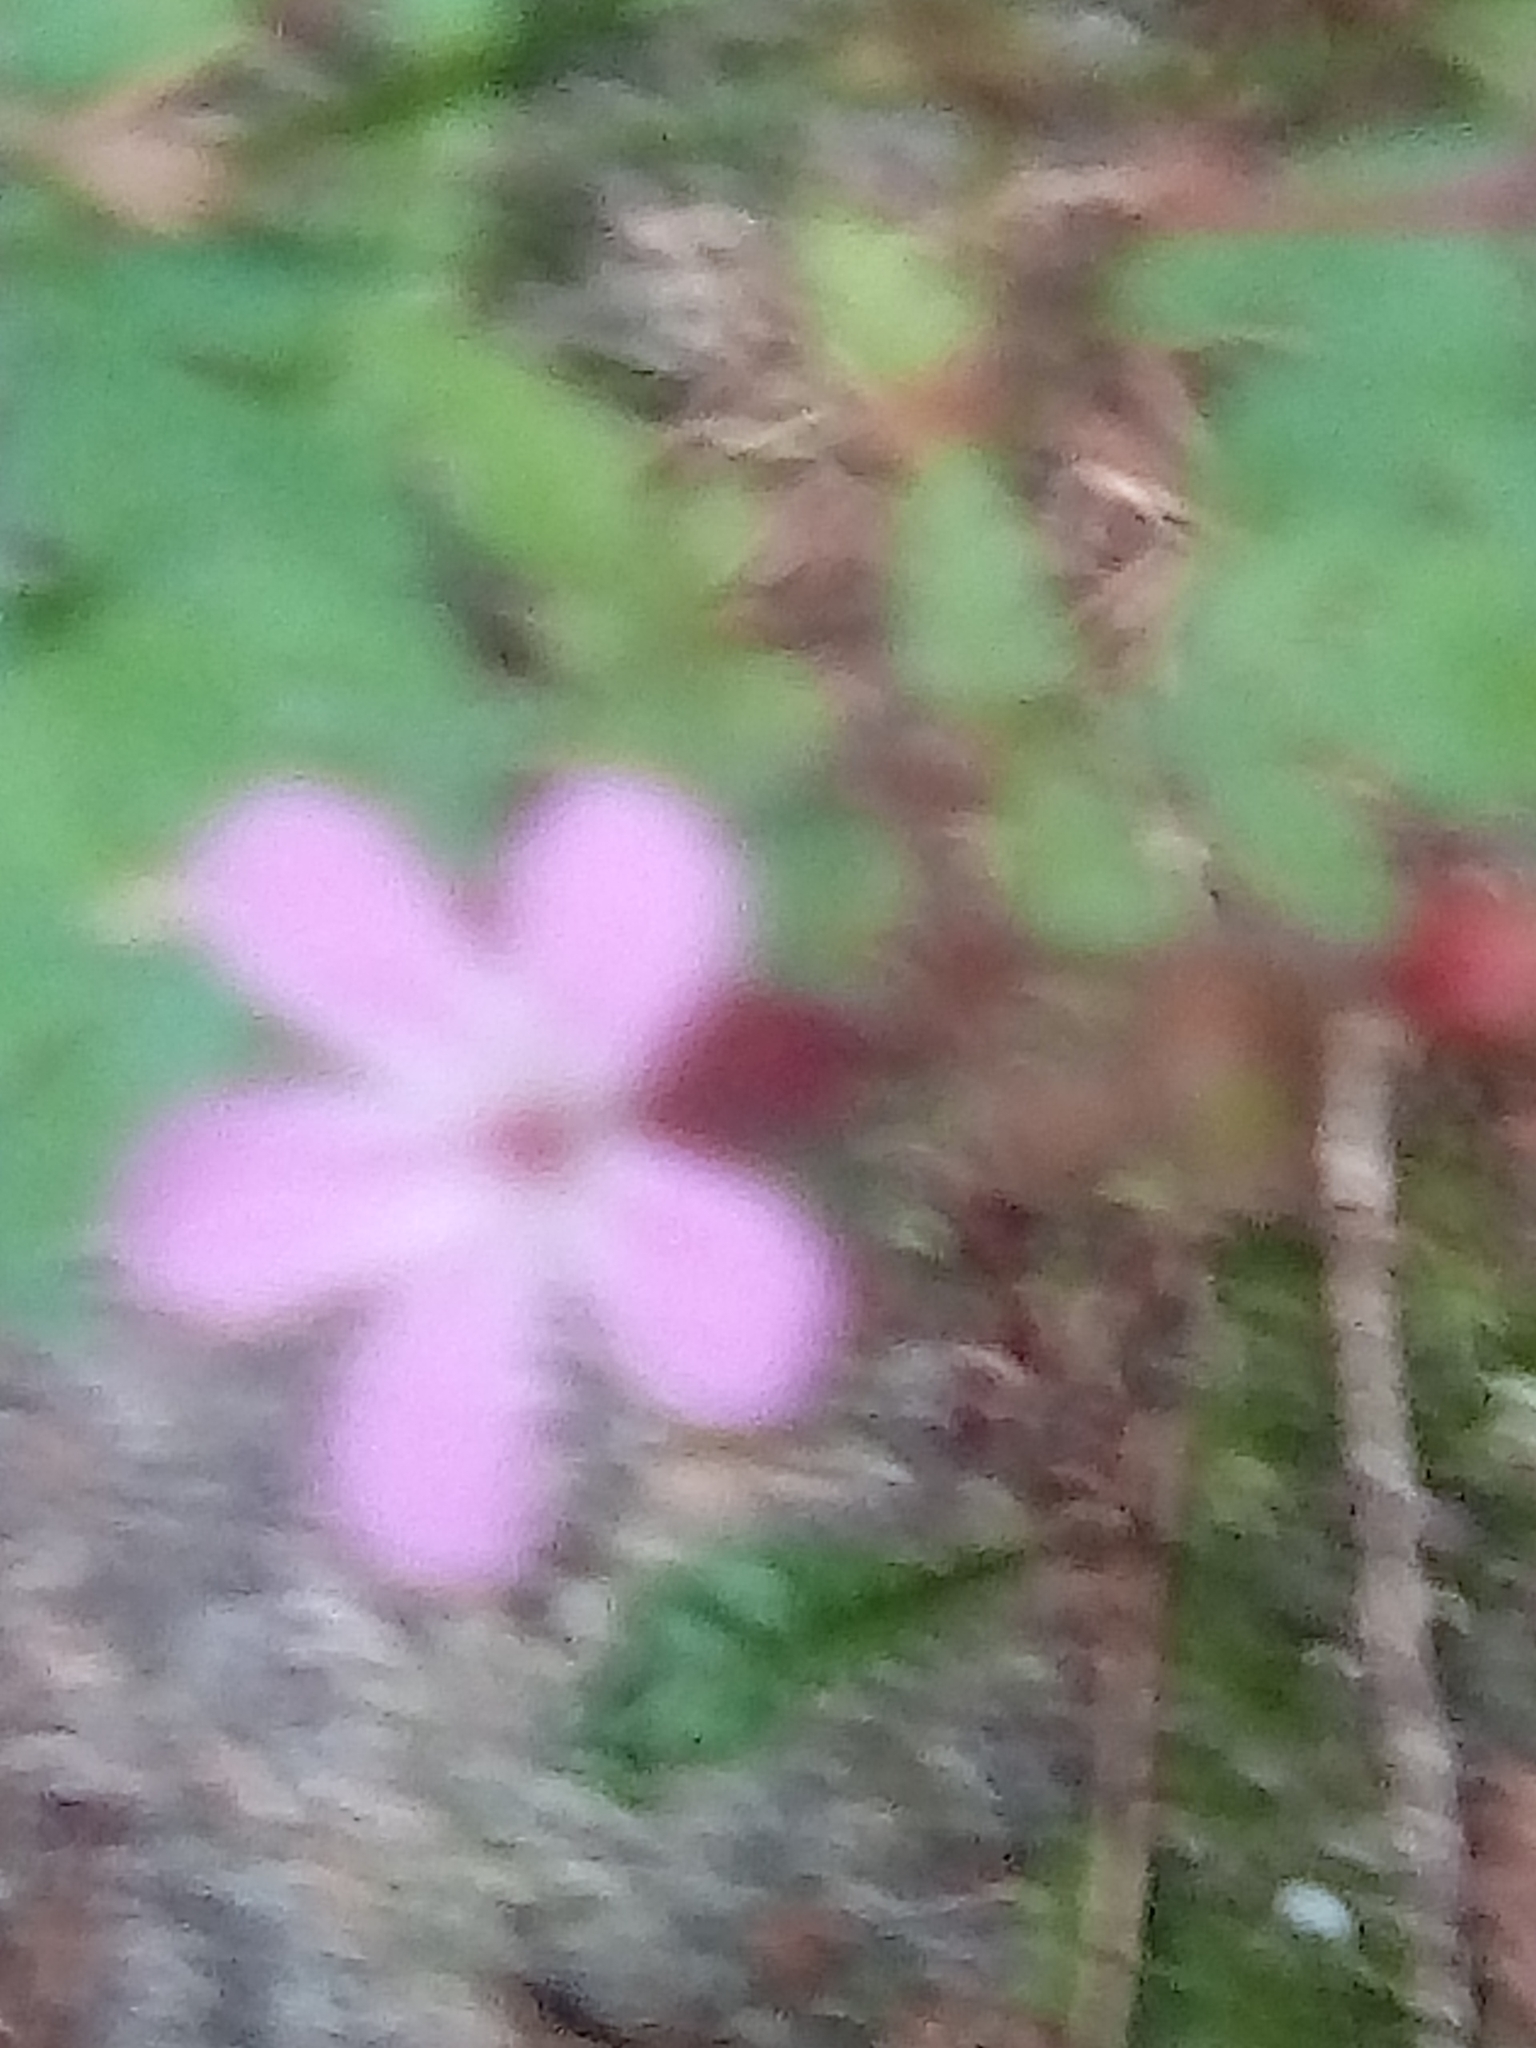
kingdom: Plantae
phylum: Tracheophyta
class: Magnoliopsida
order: Geraniales
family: Geraniaceae
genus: Geranium
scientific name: Geranium robertianum
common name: Herb-robert
